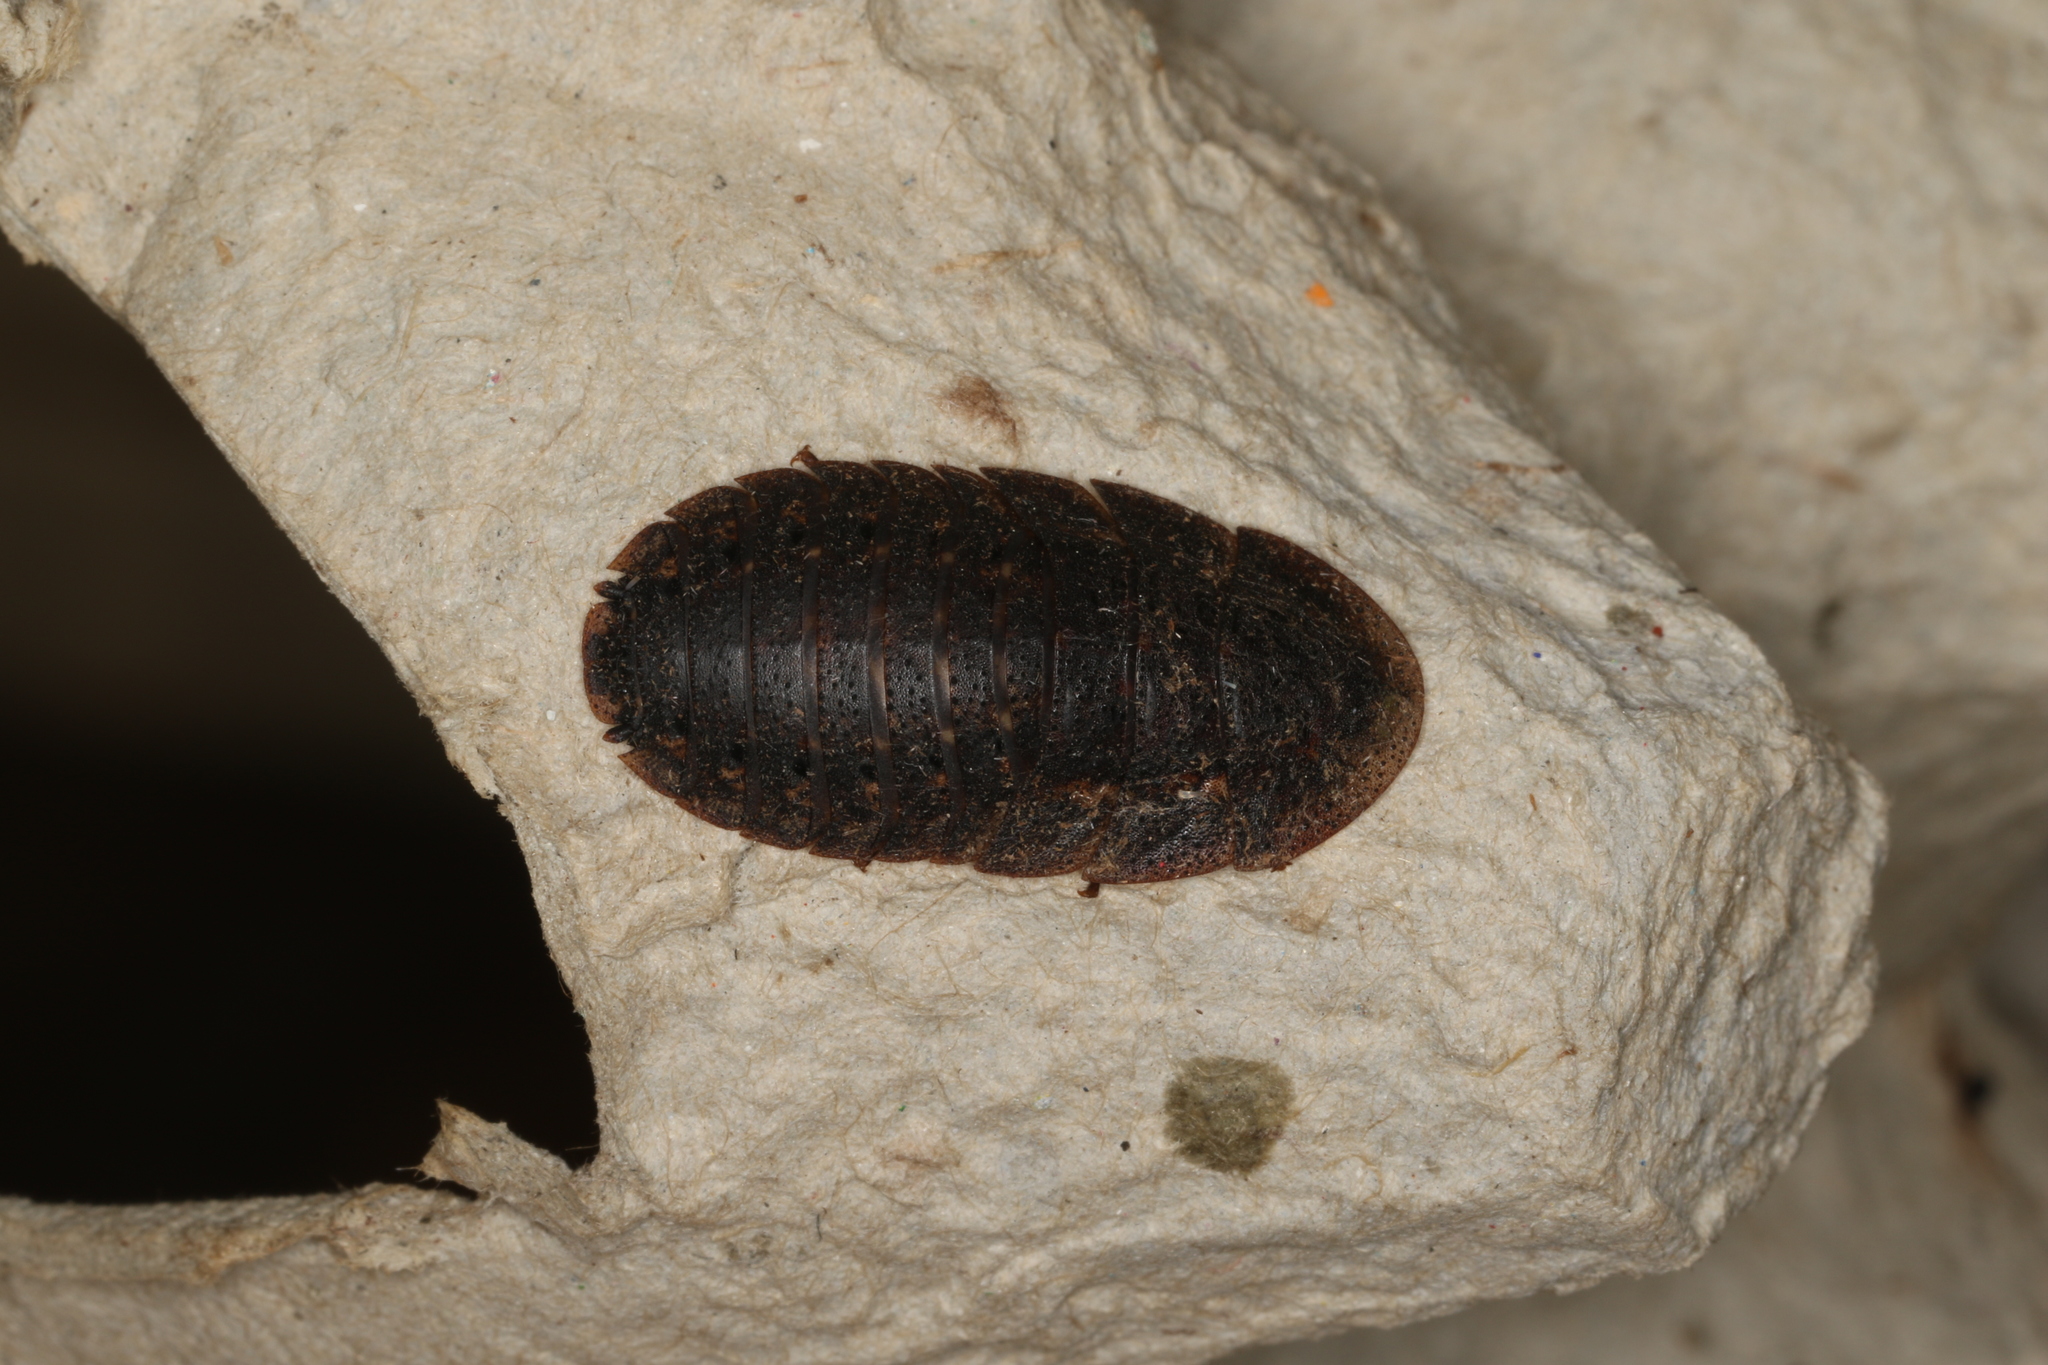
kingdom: Animalia
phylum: Arthropoda
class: Insecta
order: Blattodea
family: Blaberidae
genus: Laxta
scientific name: Laxta granicollis
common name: Bark cockroach
